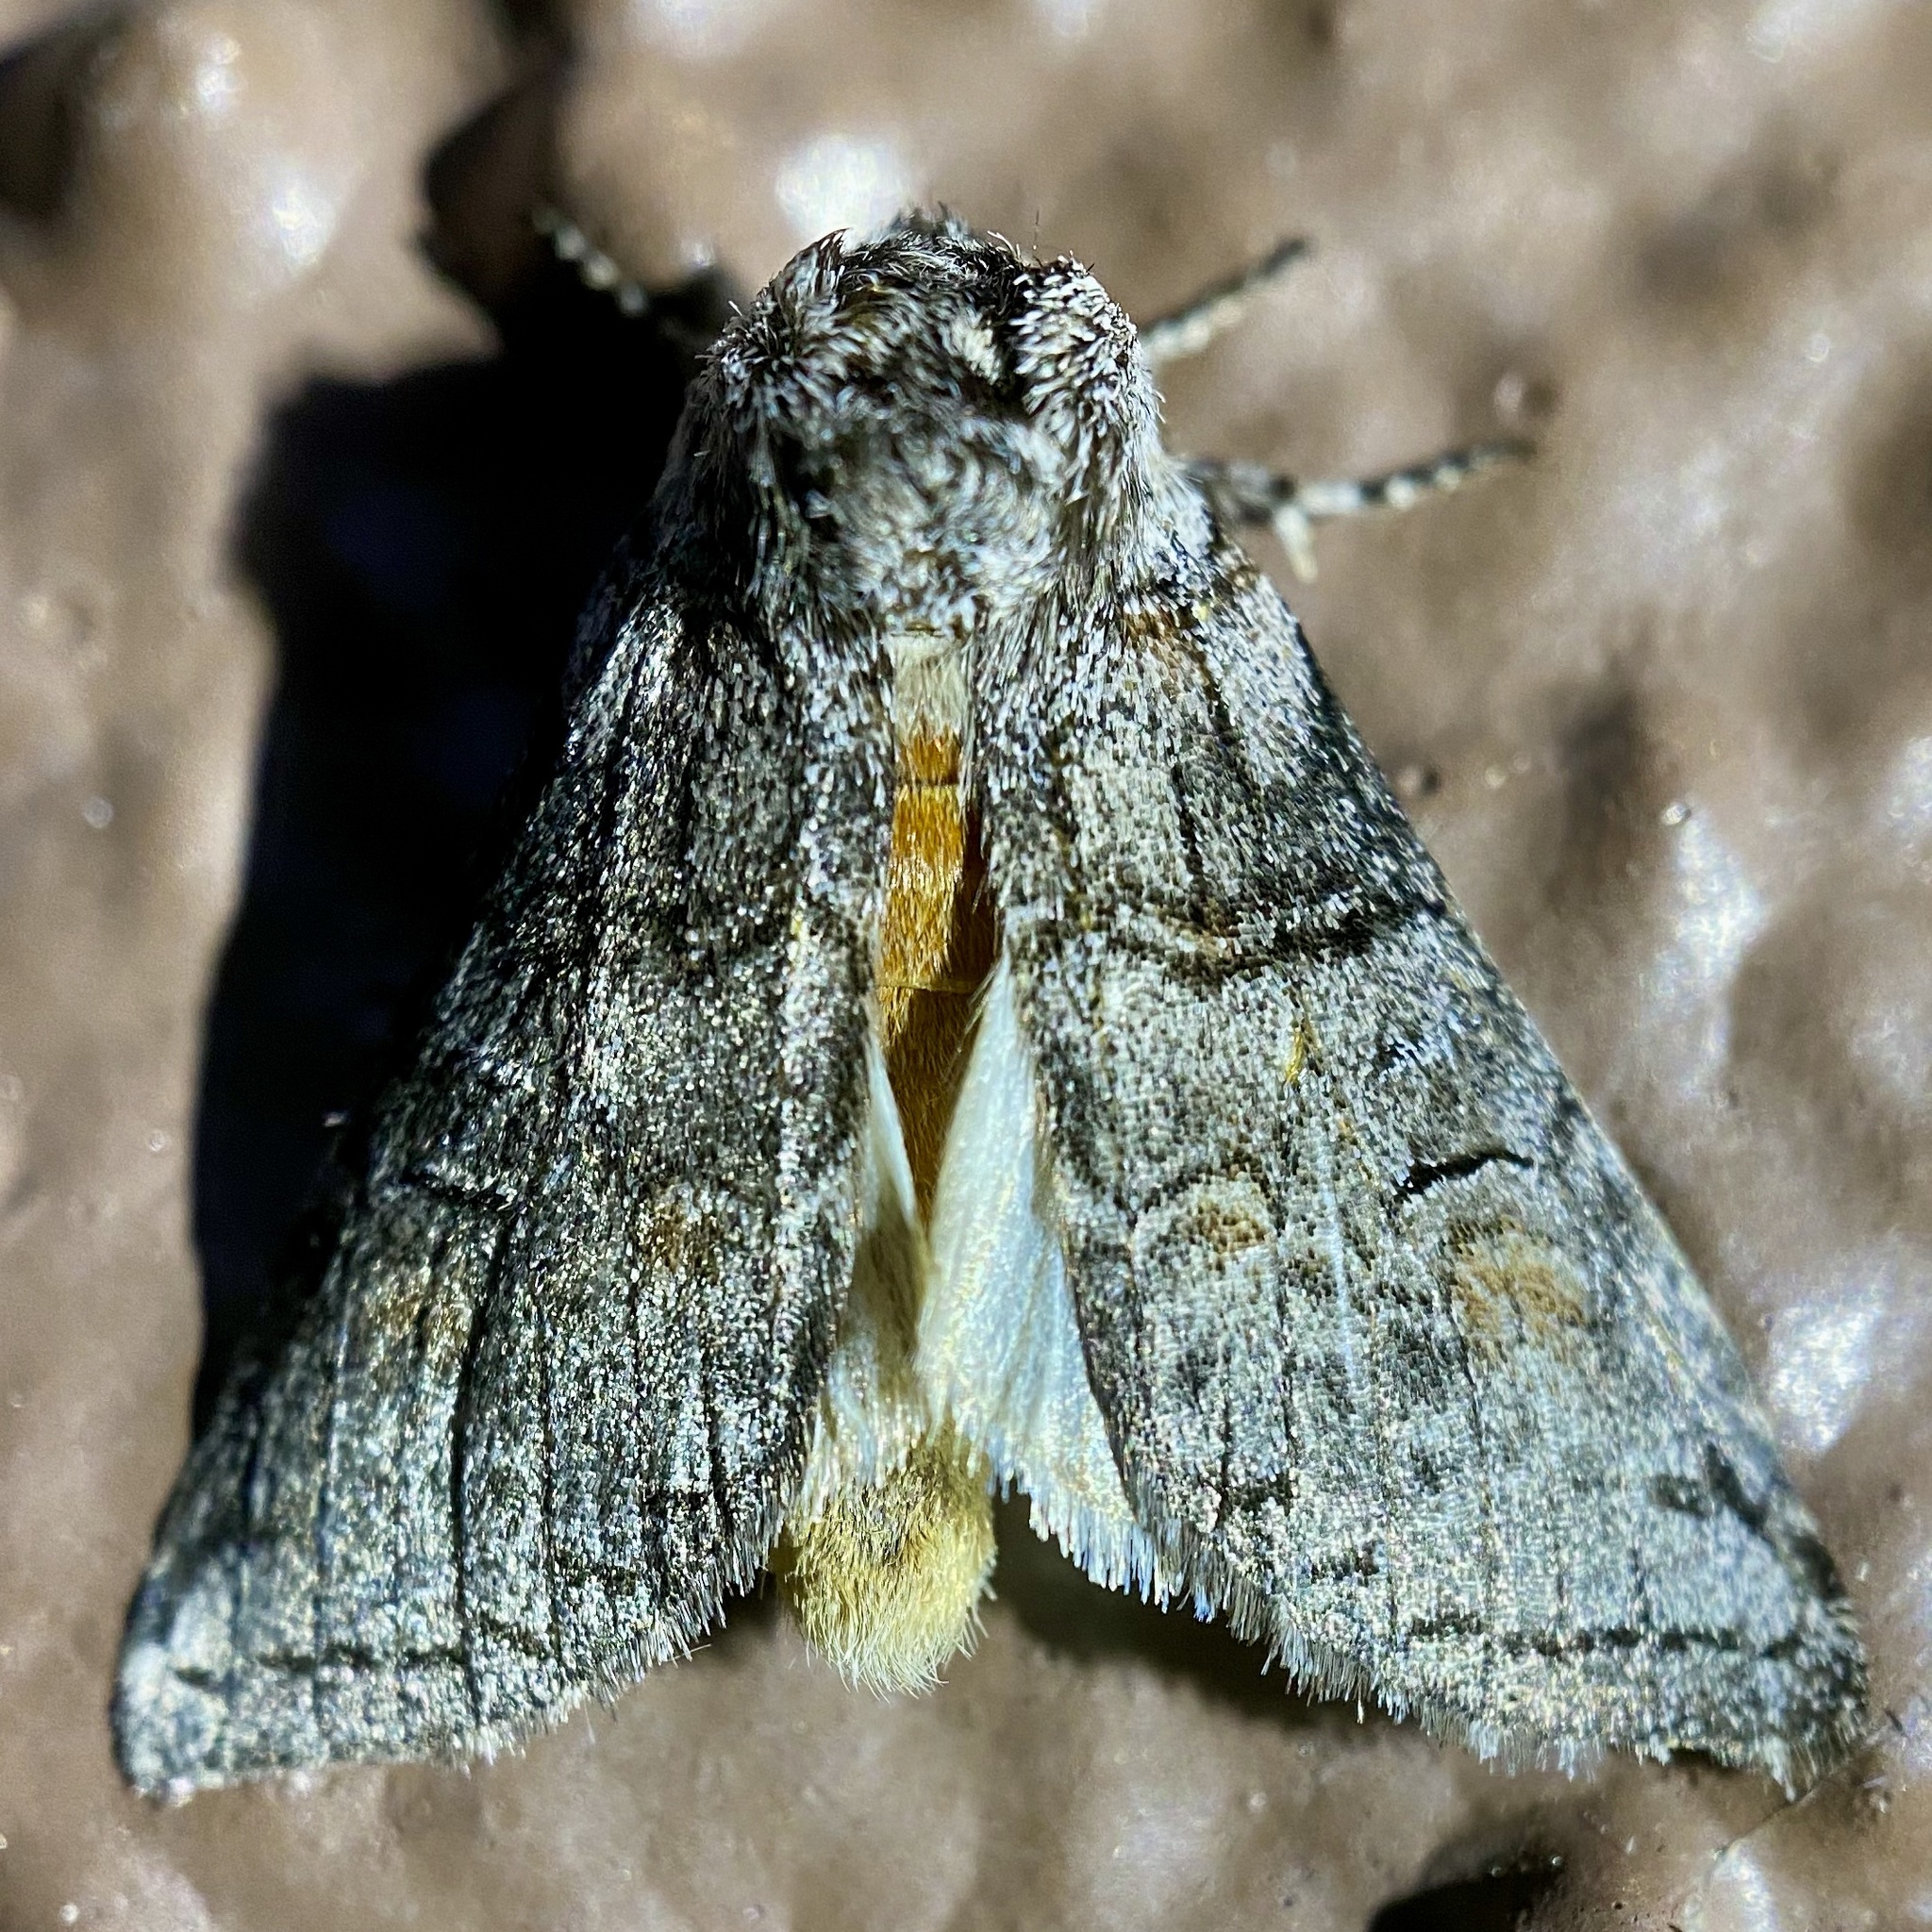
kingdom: Animalia
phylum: Arthropoda
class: Insecta
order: Lepidoptera
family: Notodontidae
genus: Afilia
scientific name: Afilia oslari
